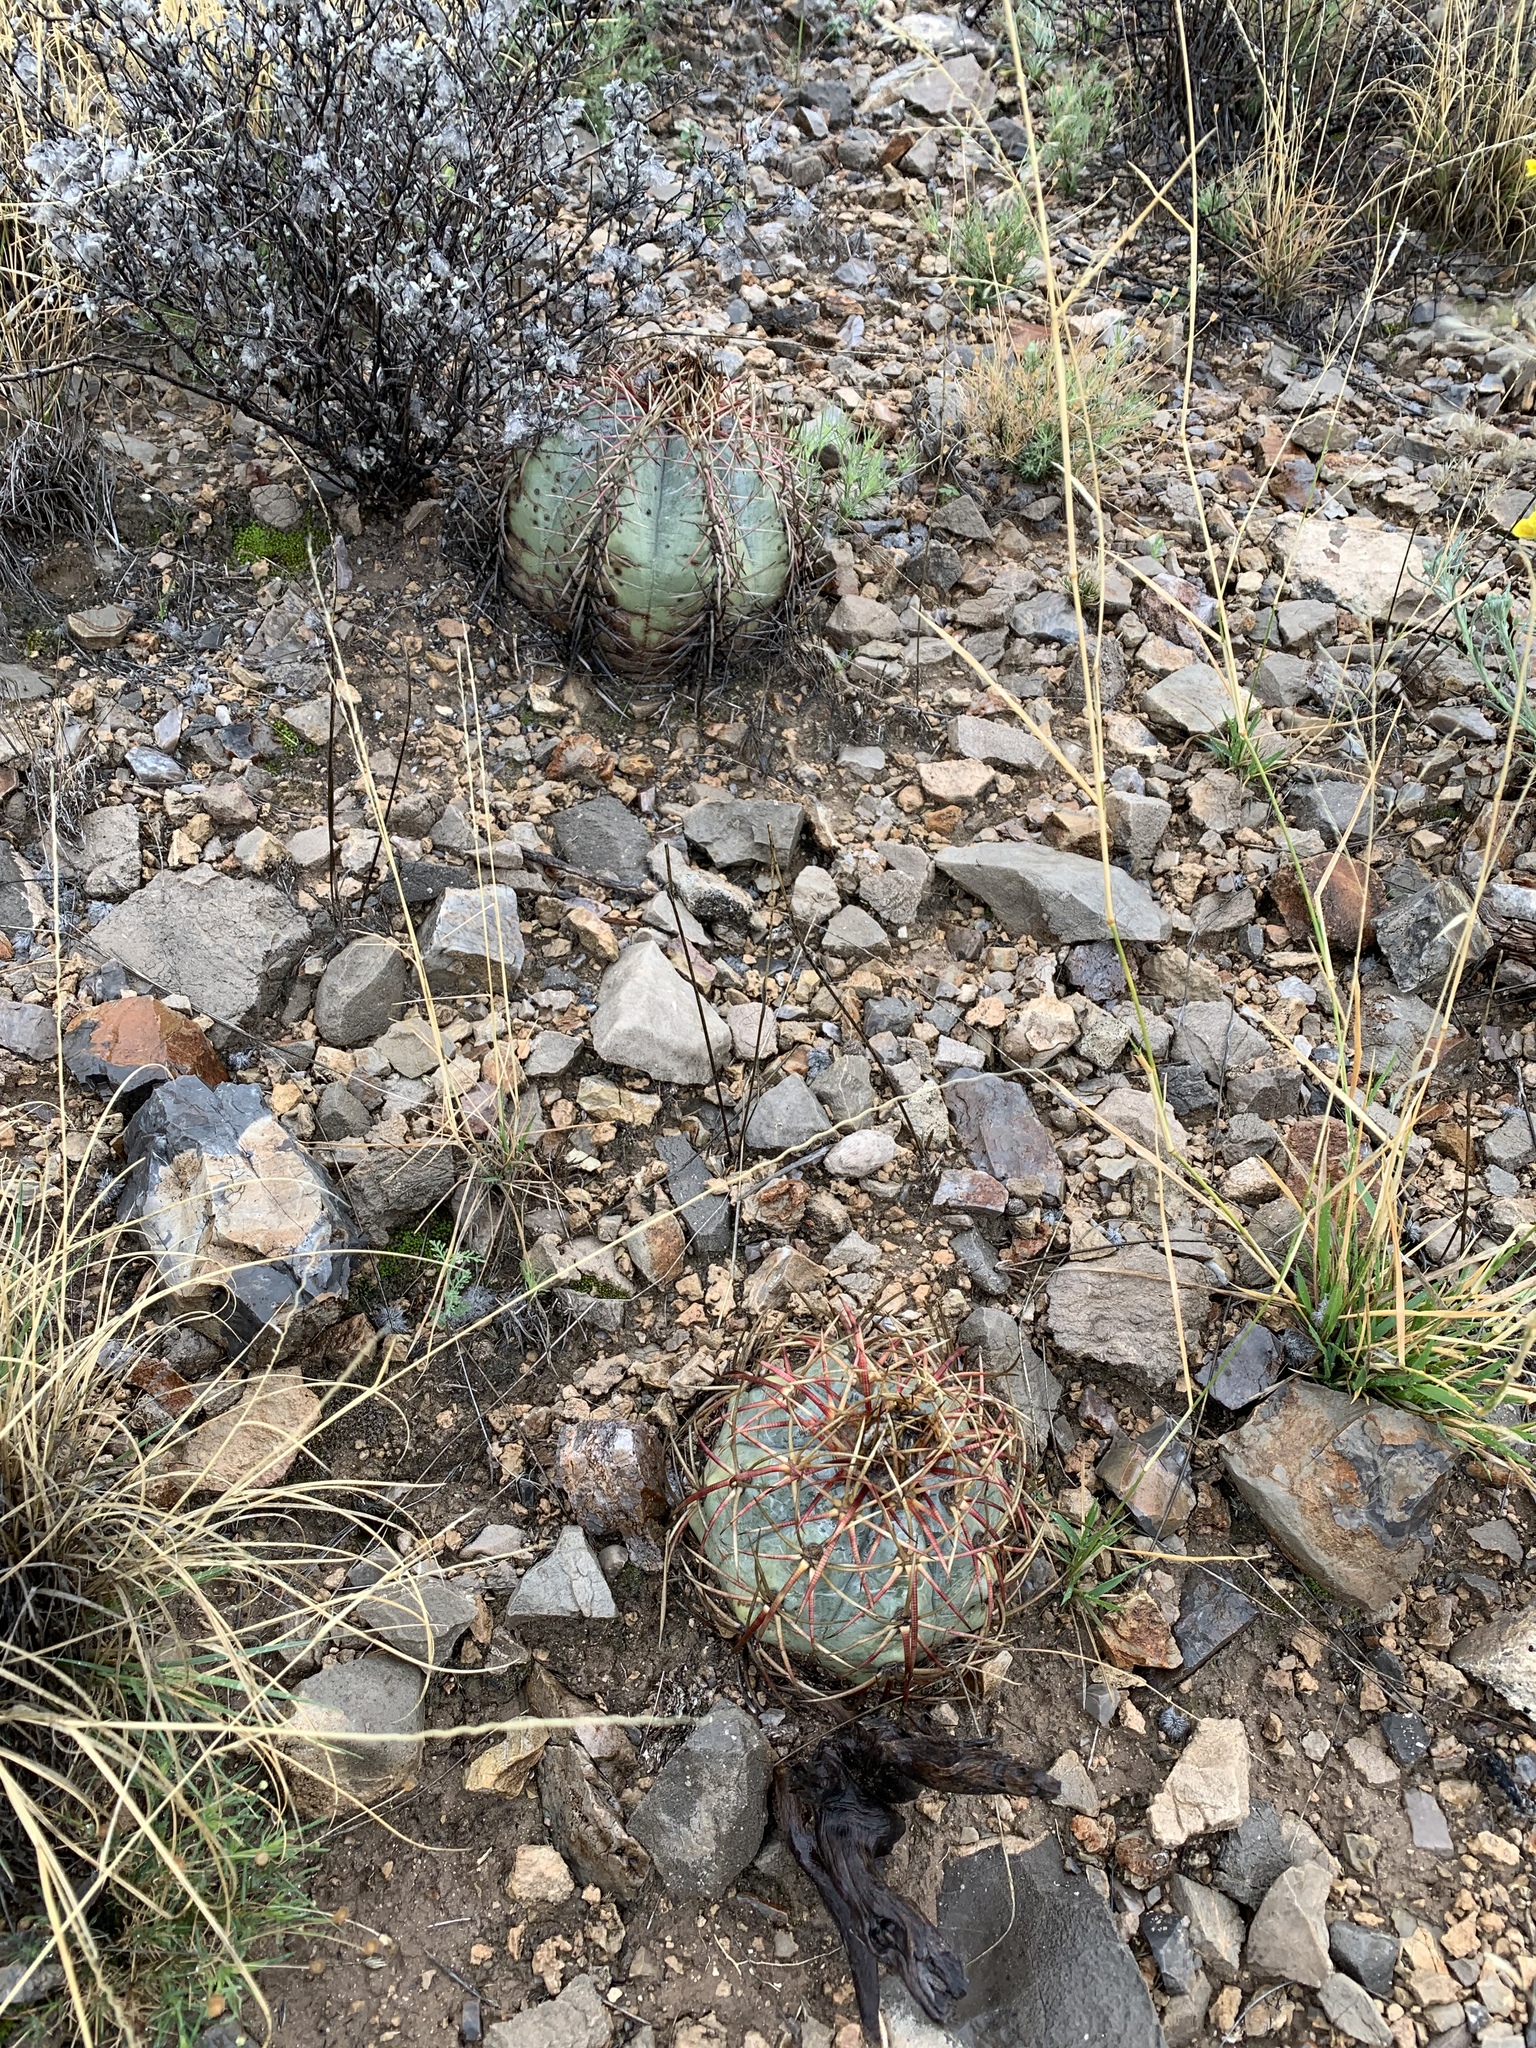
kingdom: Plantae
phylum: Tracheophyta
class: Magnoliopsida
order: Caryophyllales
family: Cactaceae
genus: Echinocactus
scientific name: Echinocactus horizonthalonius
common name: Devilshead
